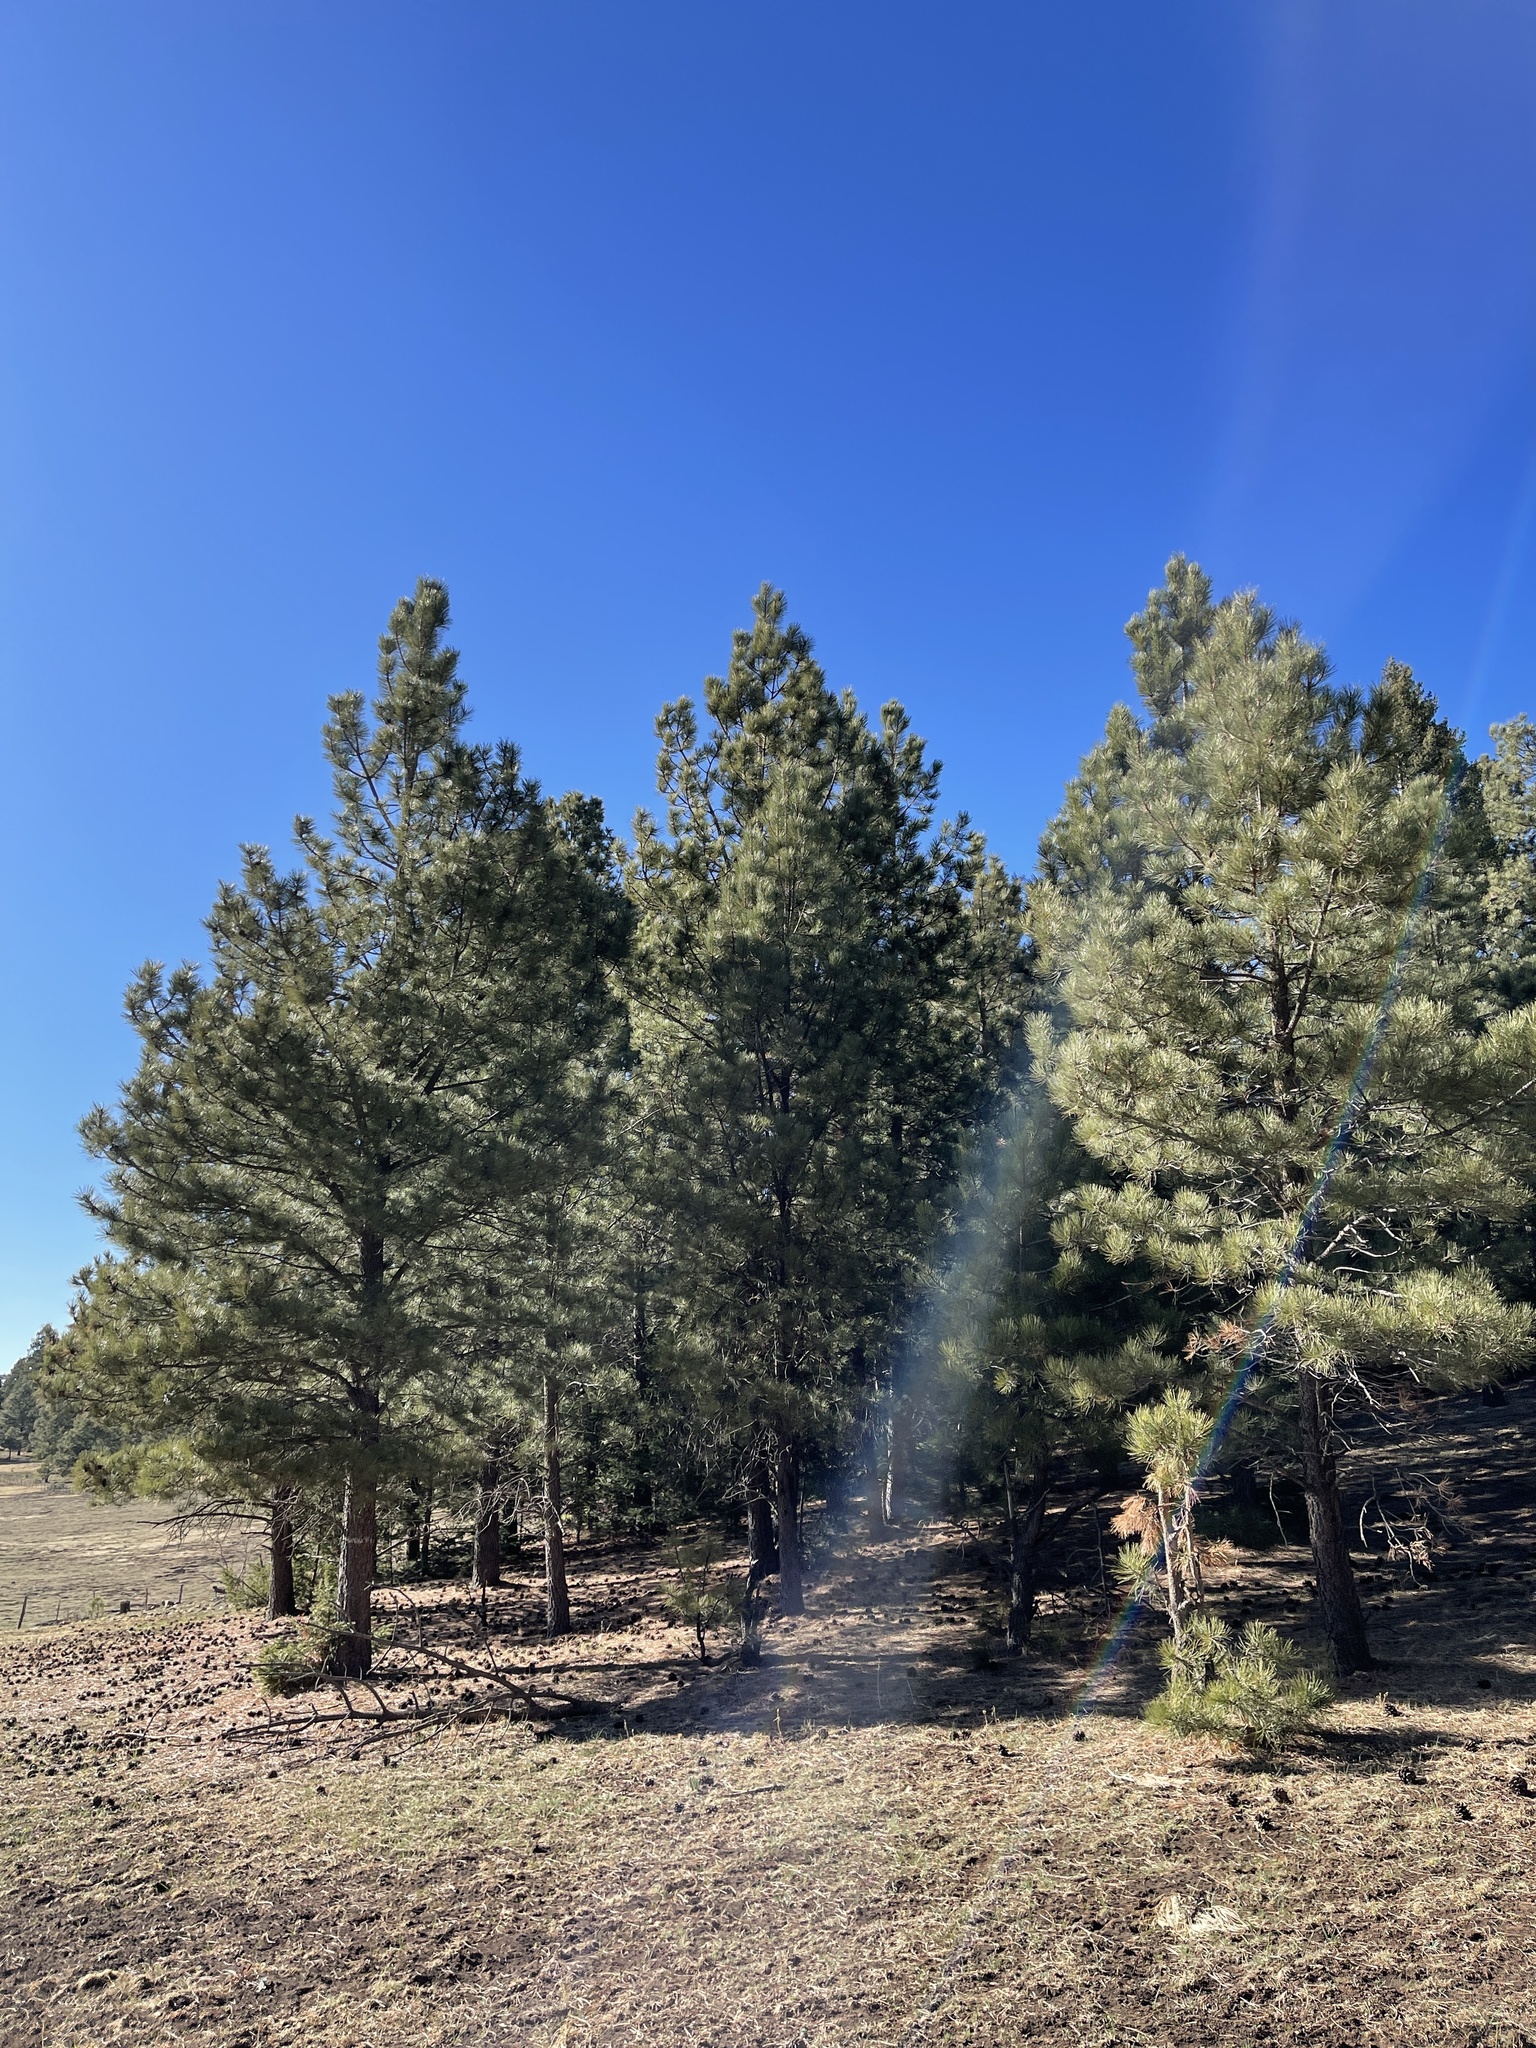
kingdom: Plantae
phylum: Tracheophyta
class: Pinopsida
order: Pinales
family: Pinaceae
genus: Pinus
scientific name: Pinus ponderosa
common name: Western yellow-pine
